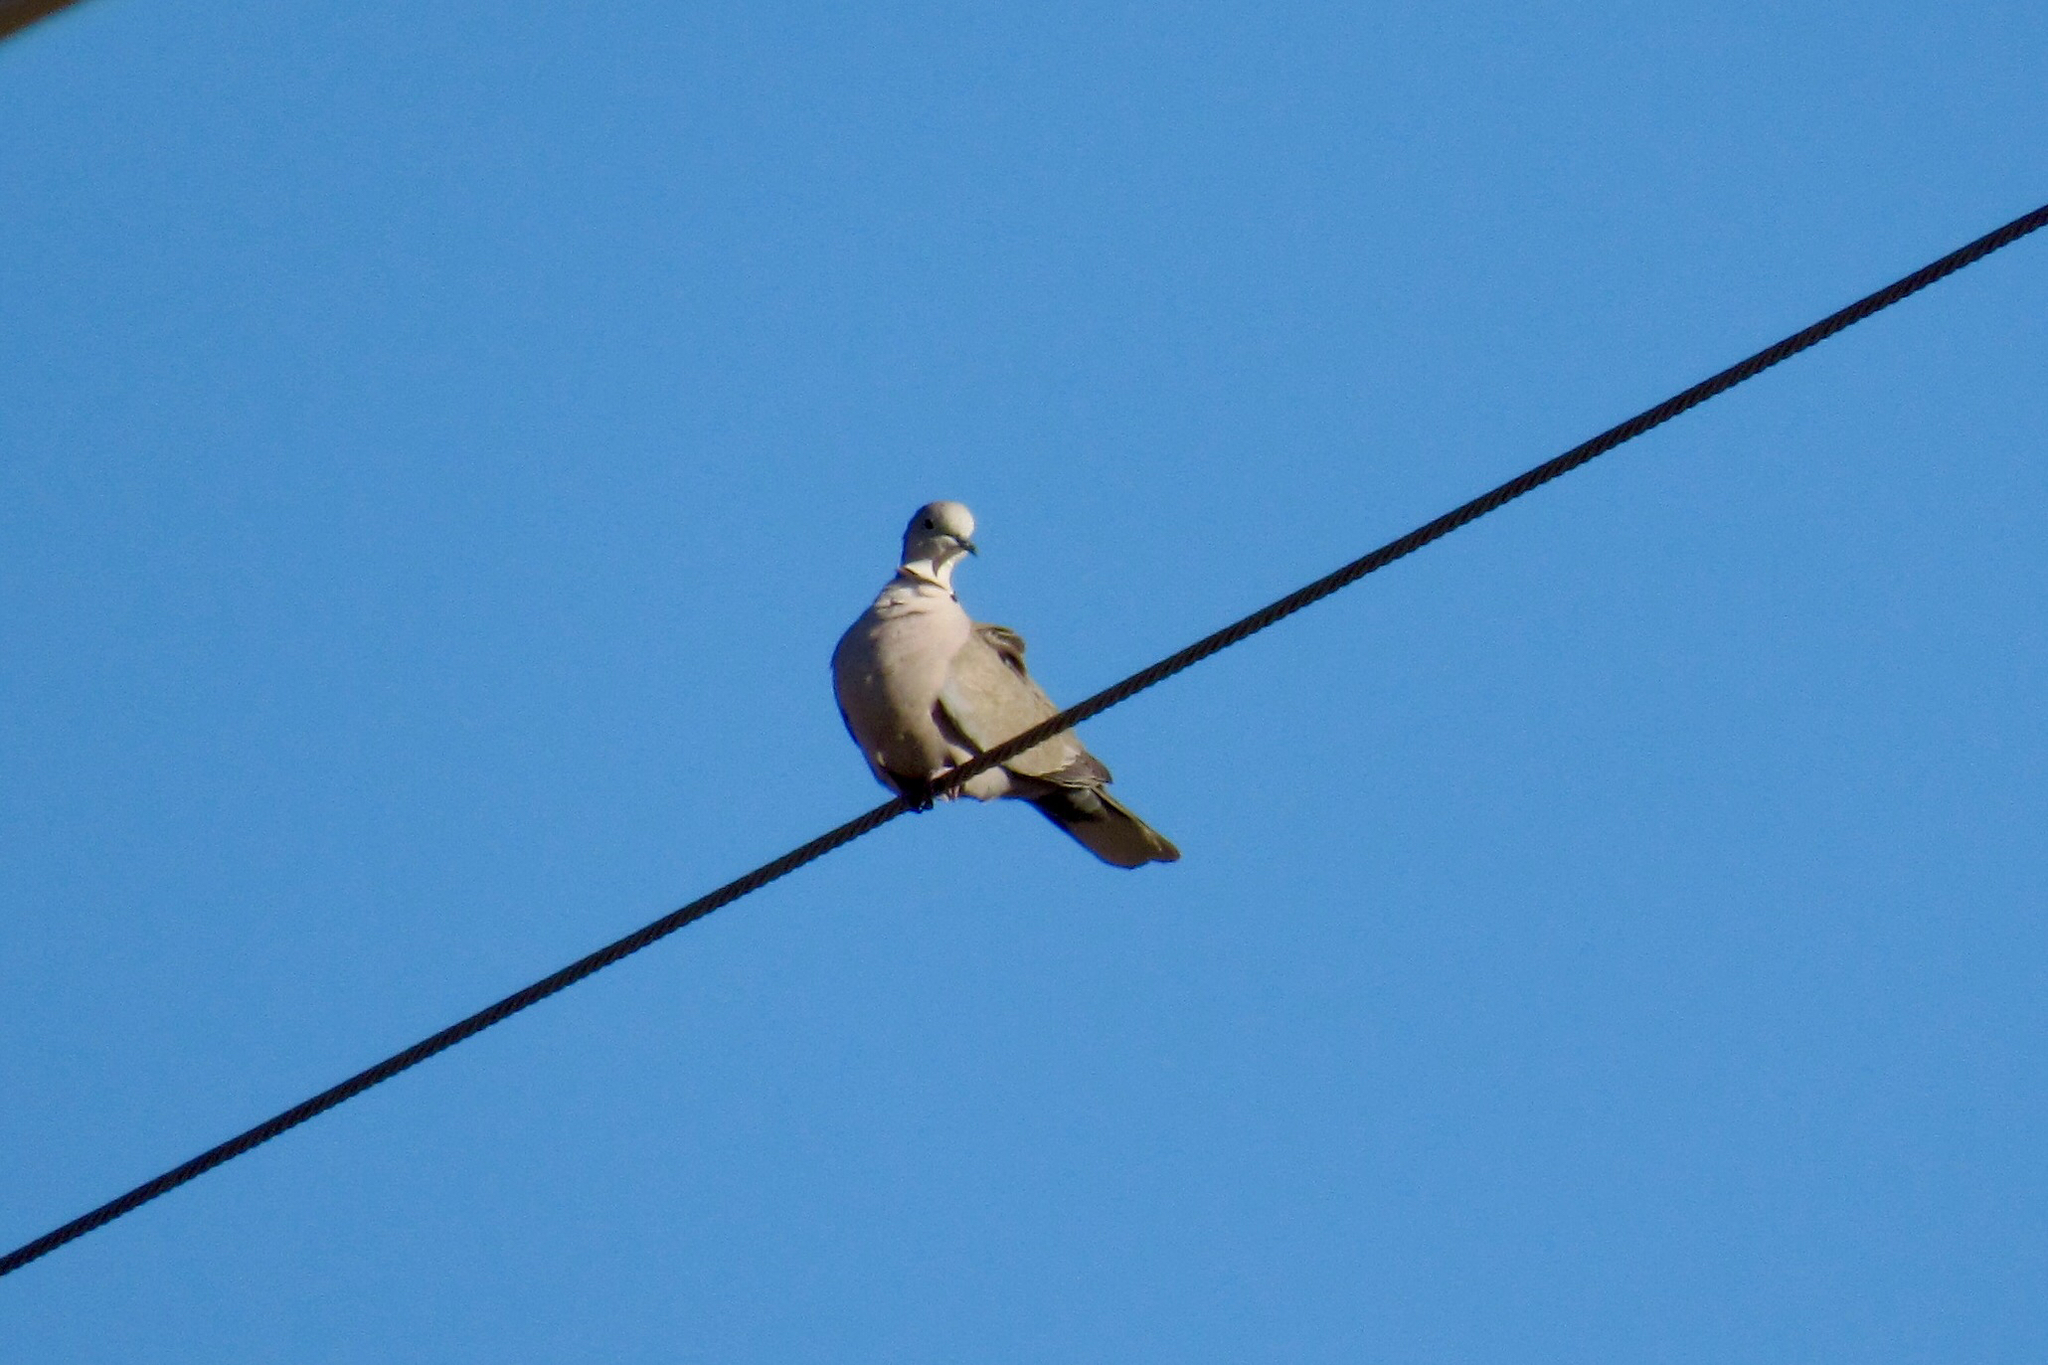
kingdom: Animalia
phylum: Chordata
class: Aves
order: Columbiformes
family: Columbidae
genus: Streptopelia
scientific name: Streptopelia decaocto
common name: Eurasian collared dove
